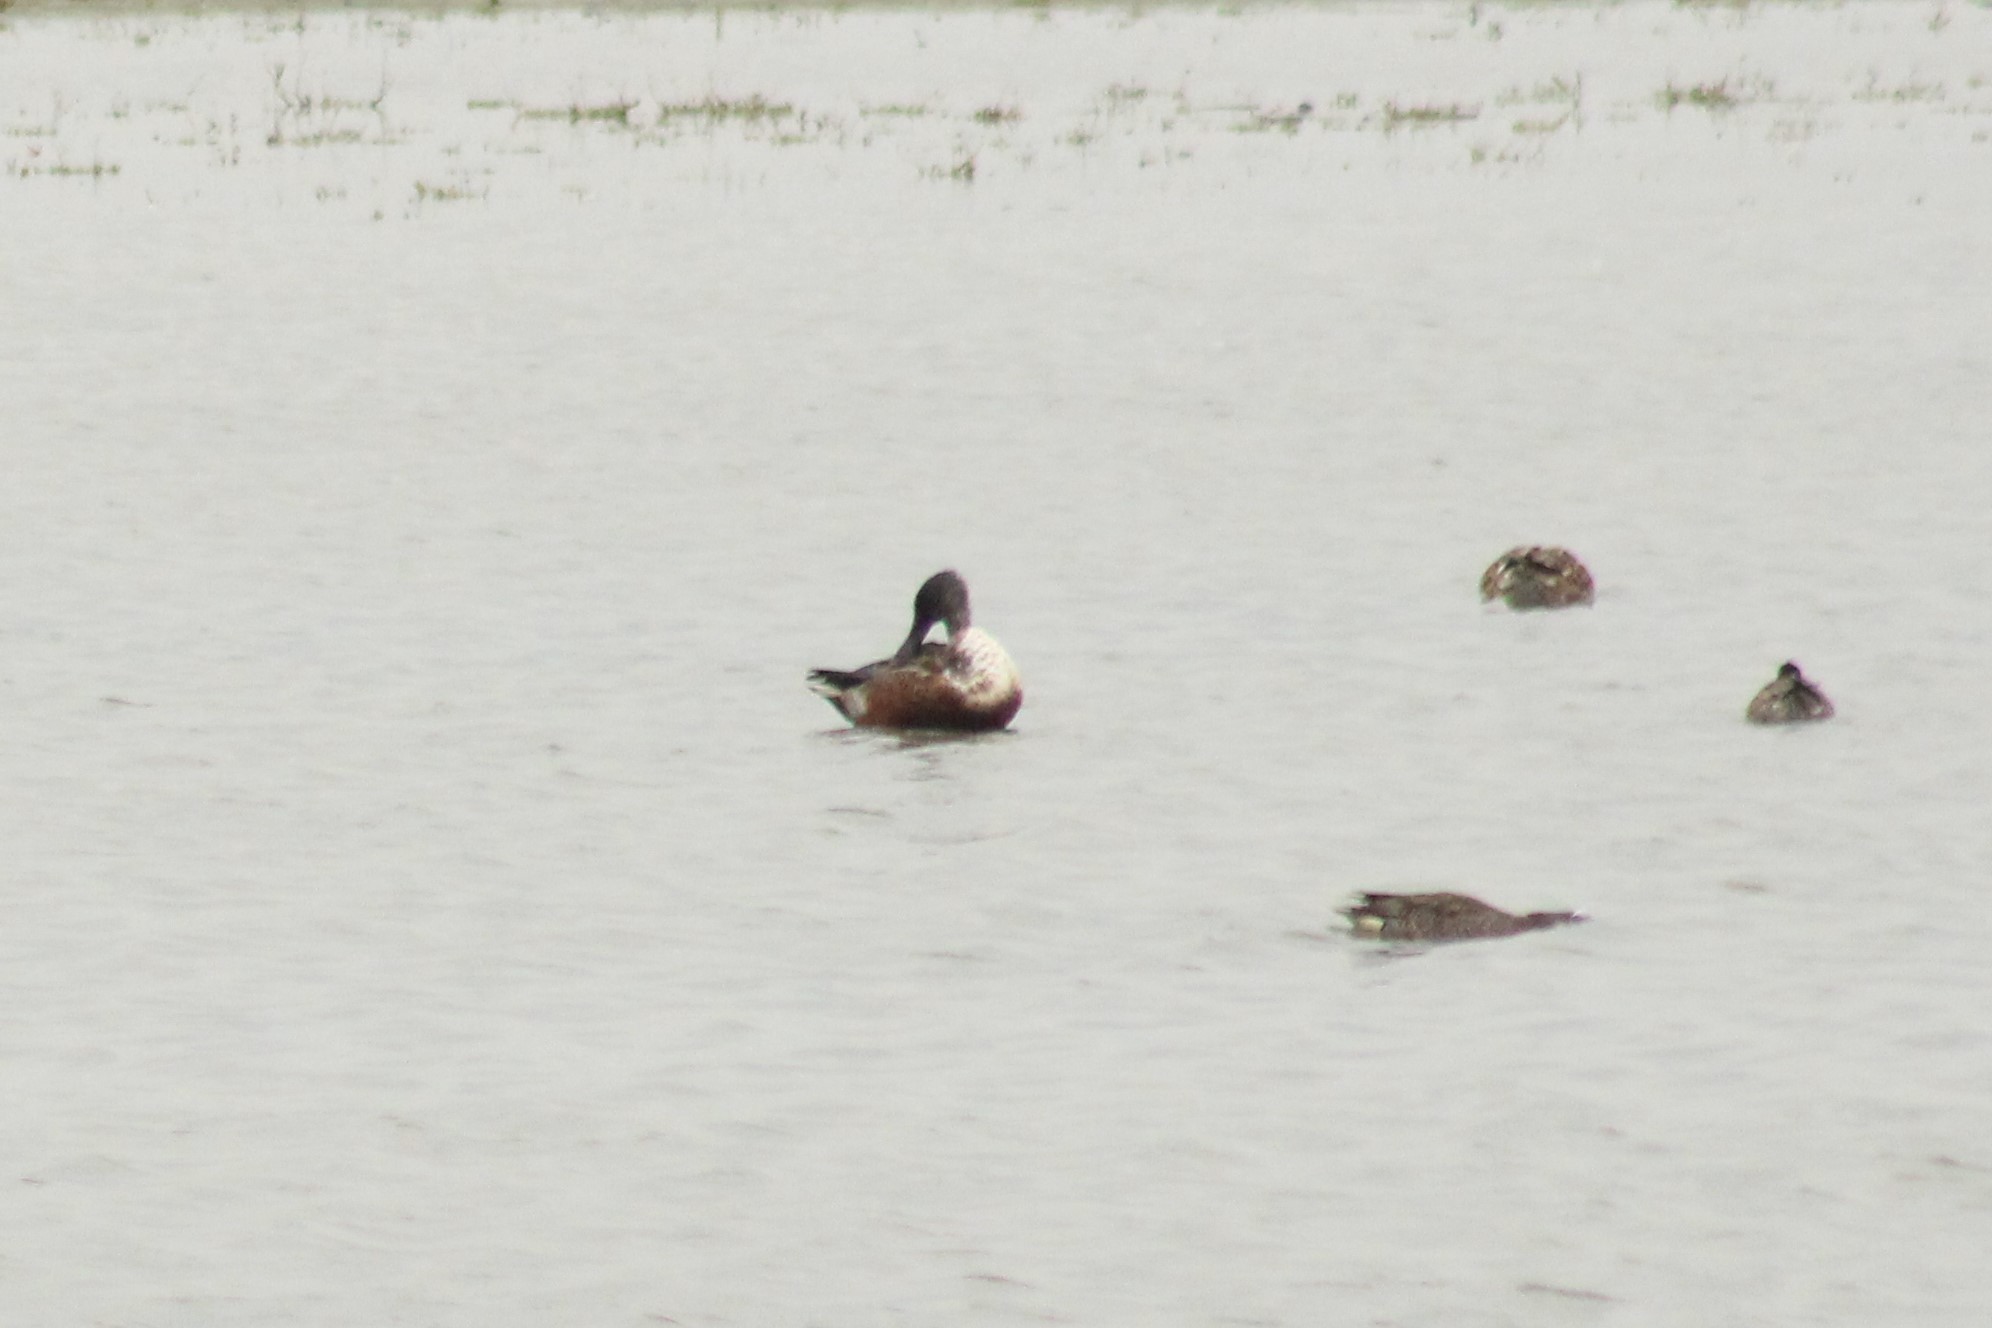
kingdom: Animalia
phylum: Chordata
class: Aves
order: Anseriformes
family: Anatidae
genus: Spatula
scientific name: Spatula clypeata
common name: Northern shoveler
